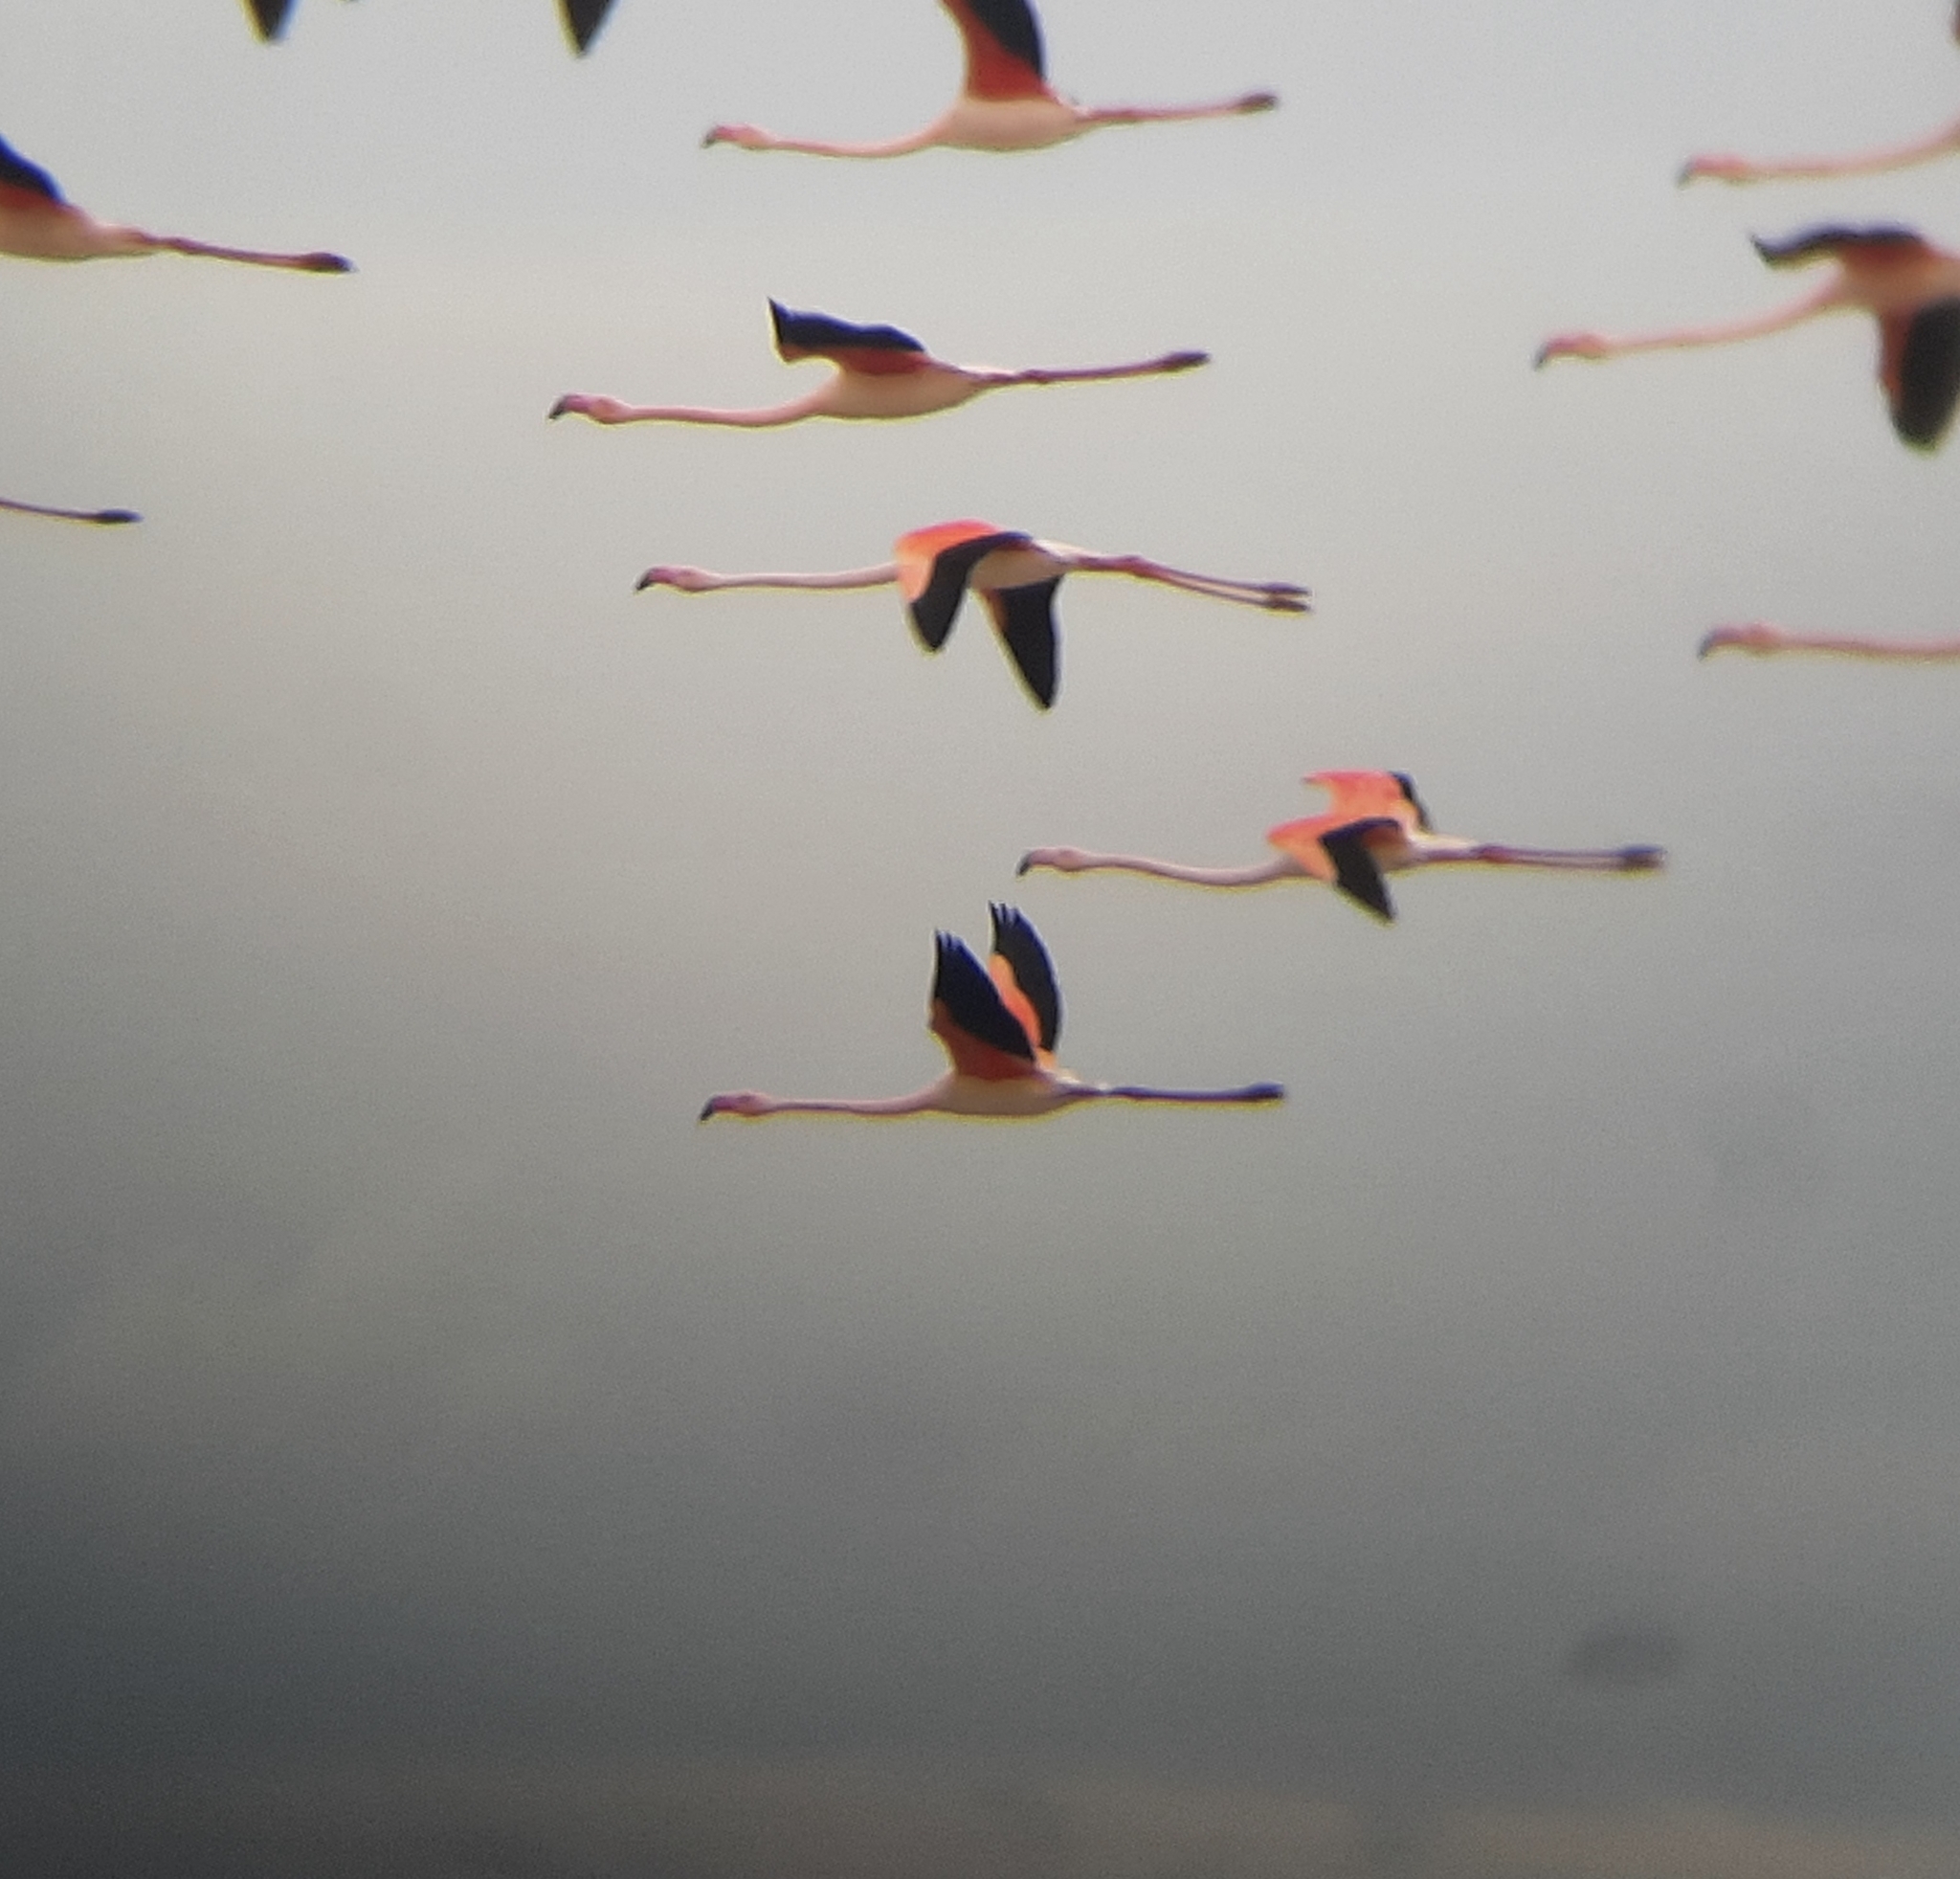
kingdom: Animalia
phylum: Chordata
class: Aves
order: Phoenicopteriformes
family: Phoenicopteridae
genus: Phoenicopterus
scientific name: Phoenicopterus roseus
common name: Greater flamingo
